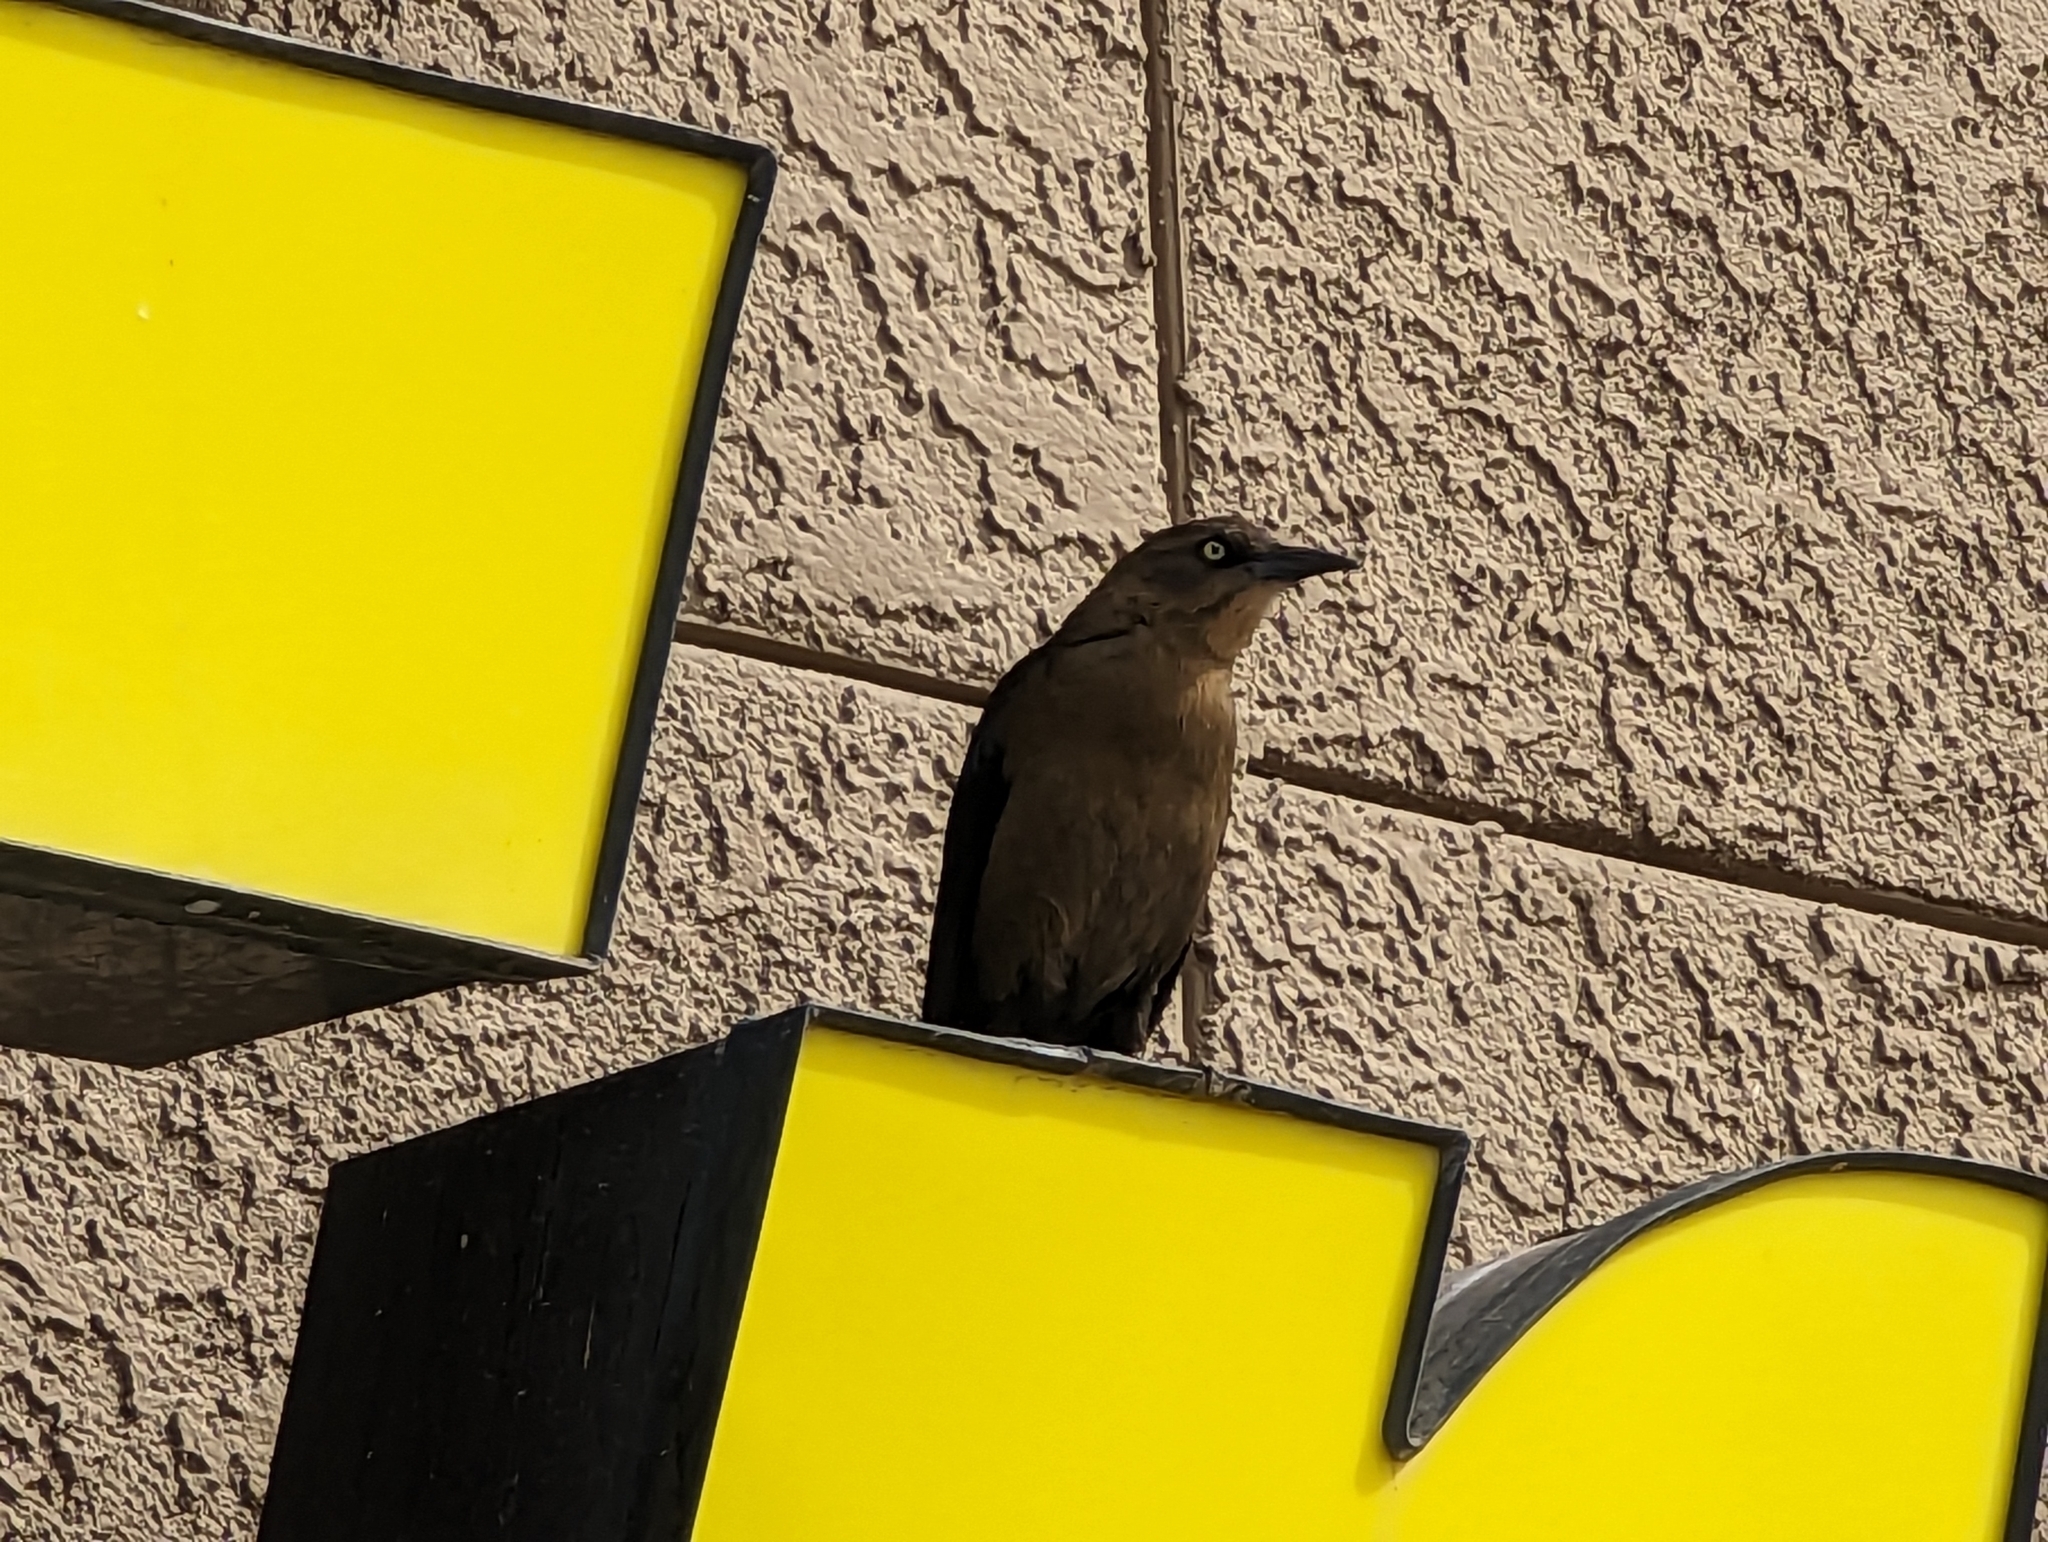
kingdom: Animalia
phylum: Chordata
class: Aves
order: Passeriformes
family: Icteridae
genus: Quiscalus
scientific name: Quiscalus mexicanus
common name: Great-tailed grackle
